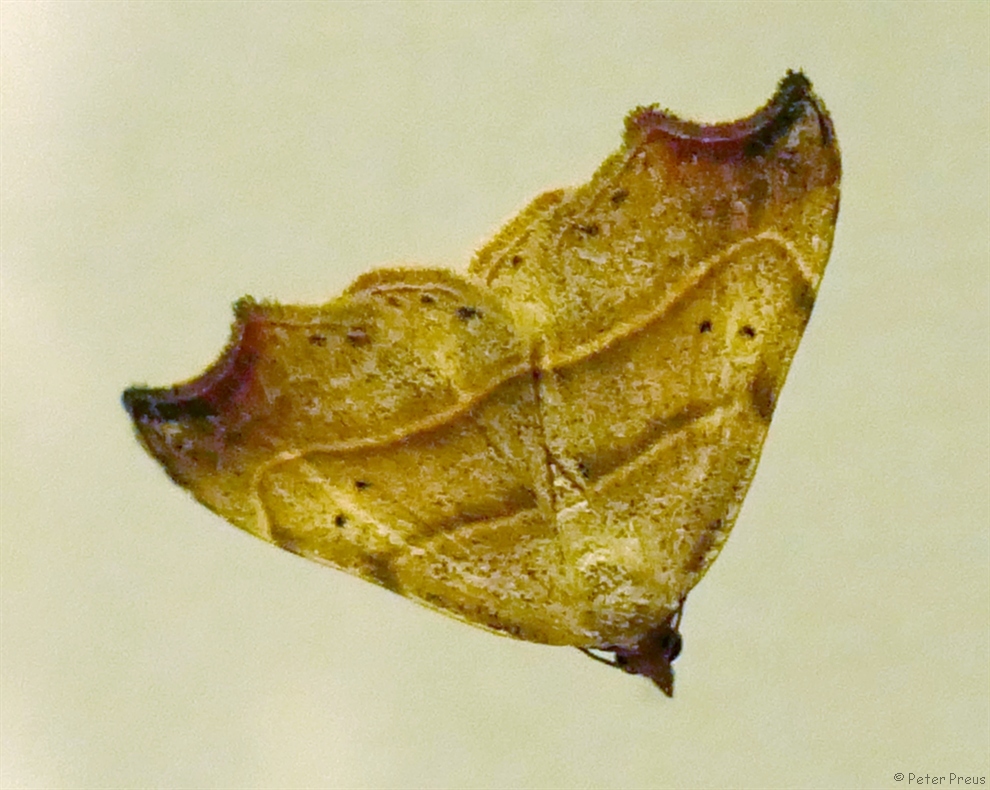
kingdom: Animalia
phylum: Arthropoda
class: Insecta
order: Lepidoptera
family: Erebidae
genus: Laspeyria
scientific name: Laspeyria flexula
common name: Beautiful hook-tip
